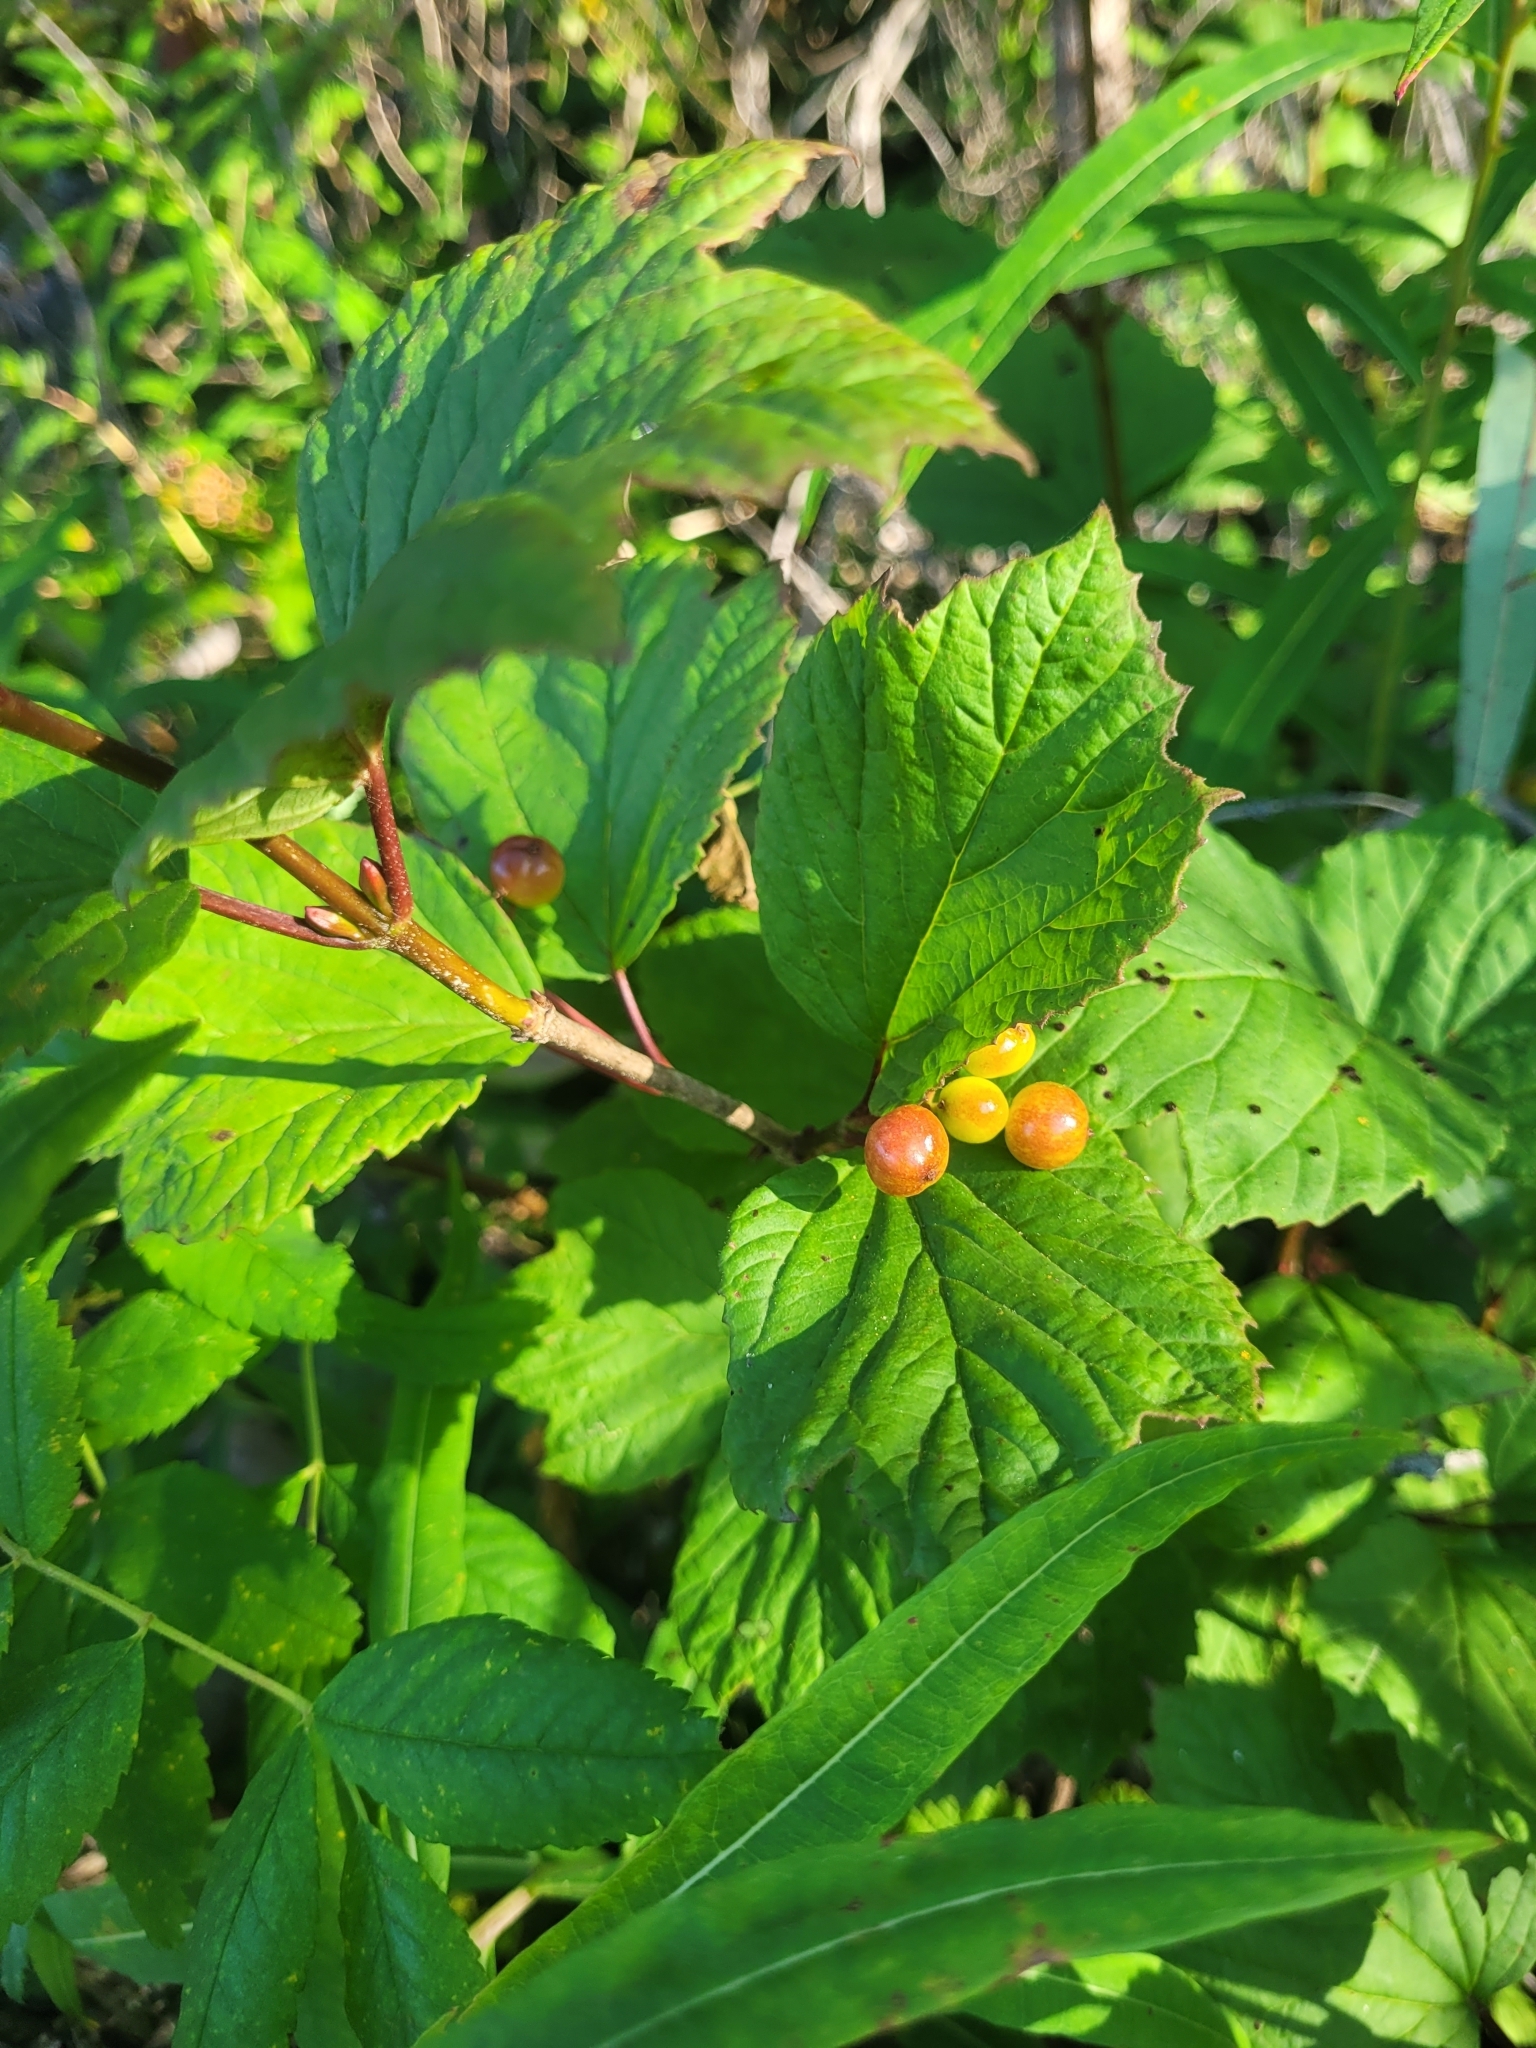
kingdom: Plantae
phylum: Tracheophyta
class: Magnoliopsida
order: Dipsacales
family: Viburnaceae
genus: Viburnum
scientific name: Viburnum edule
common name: Mooseberry
